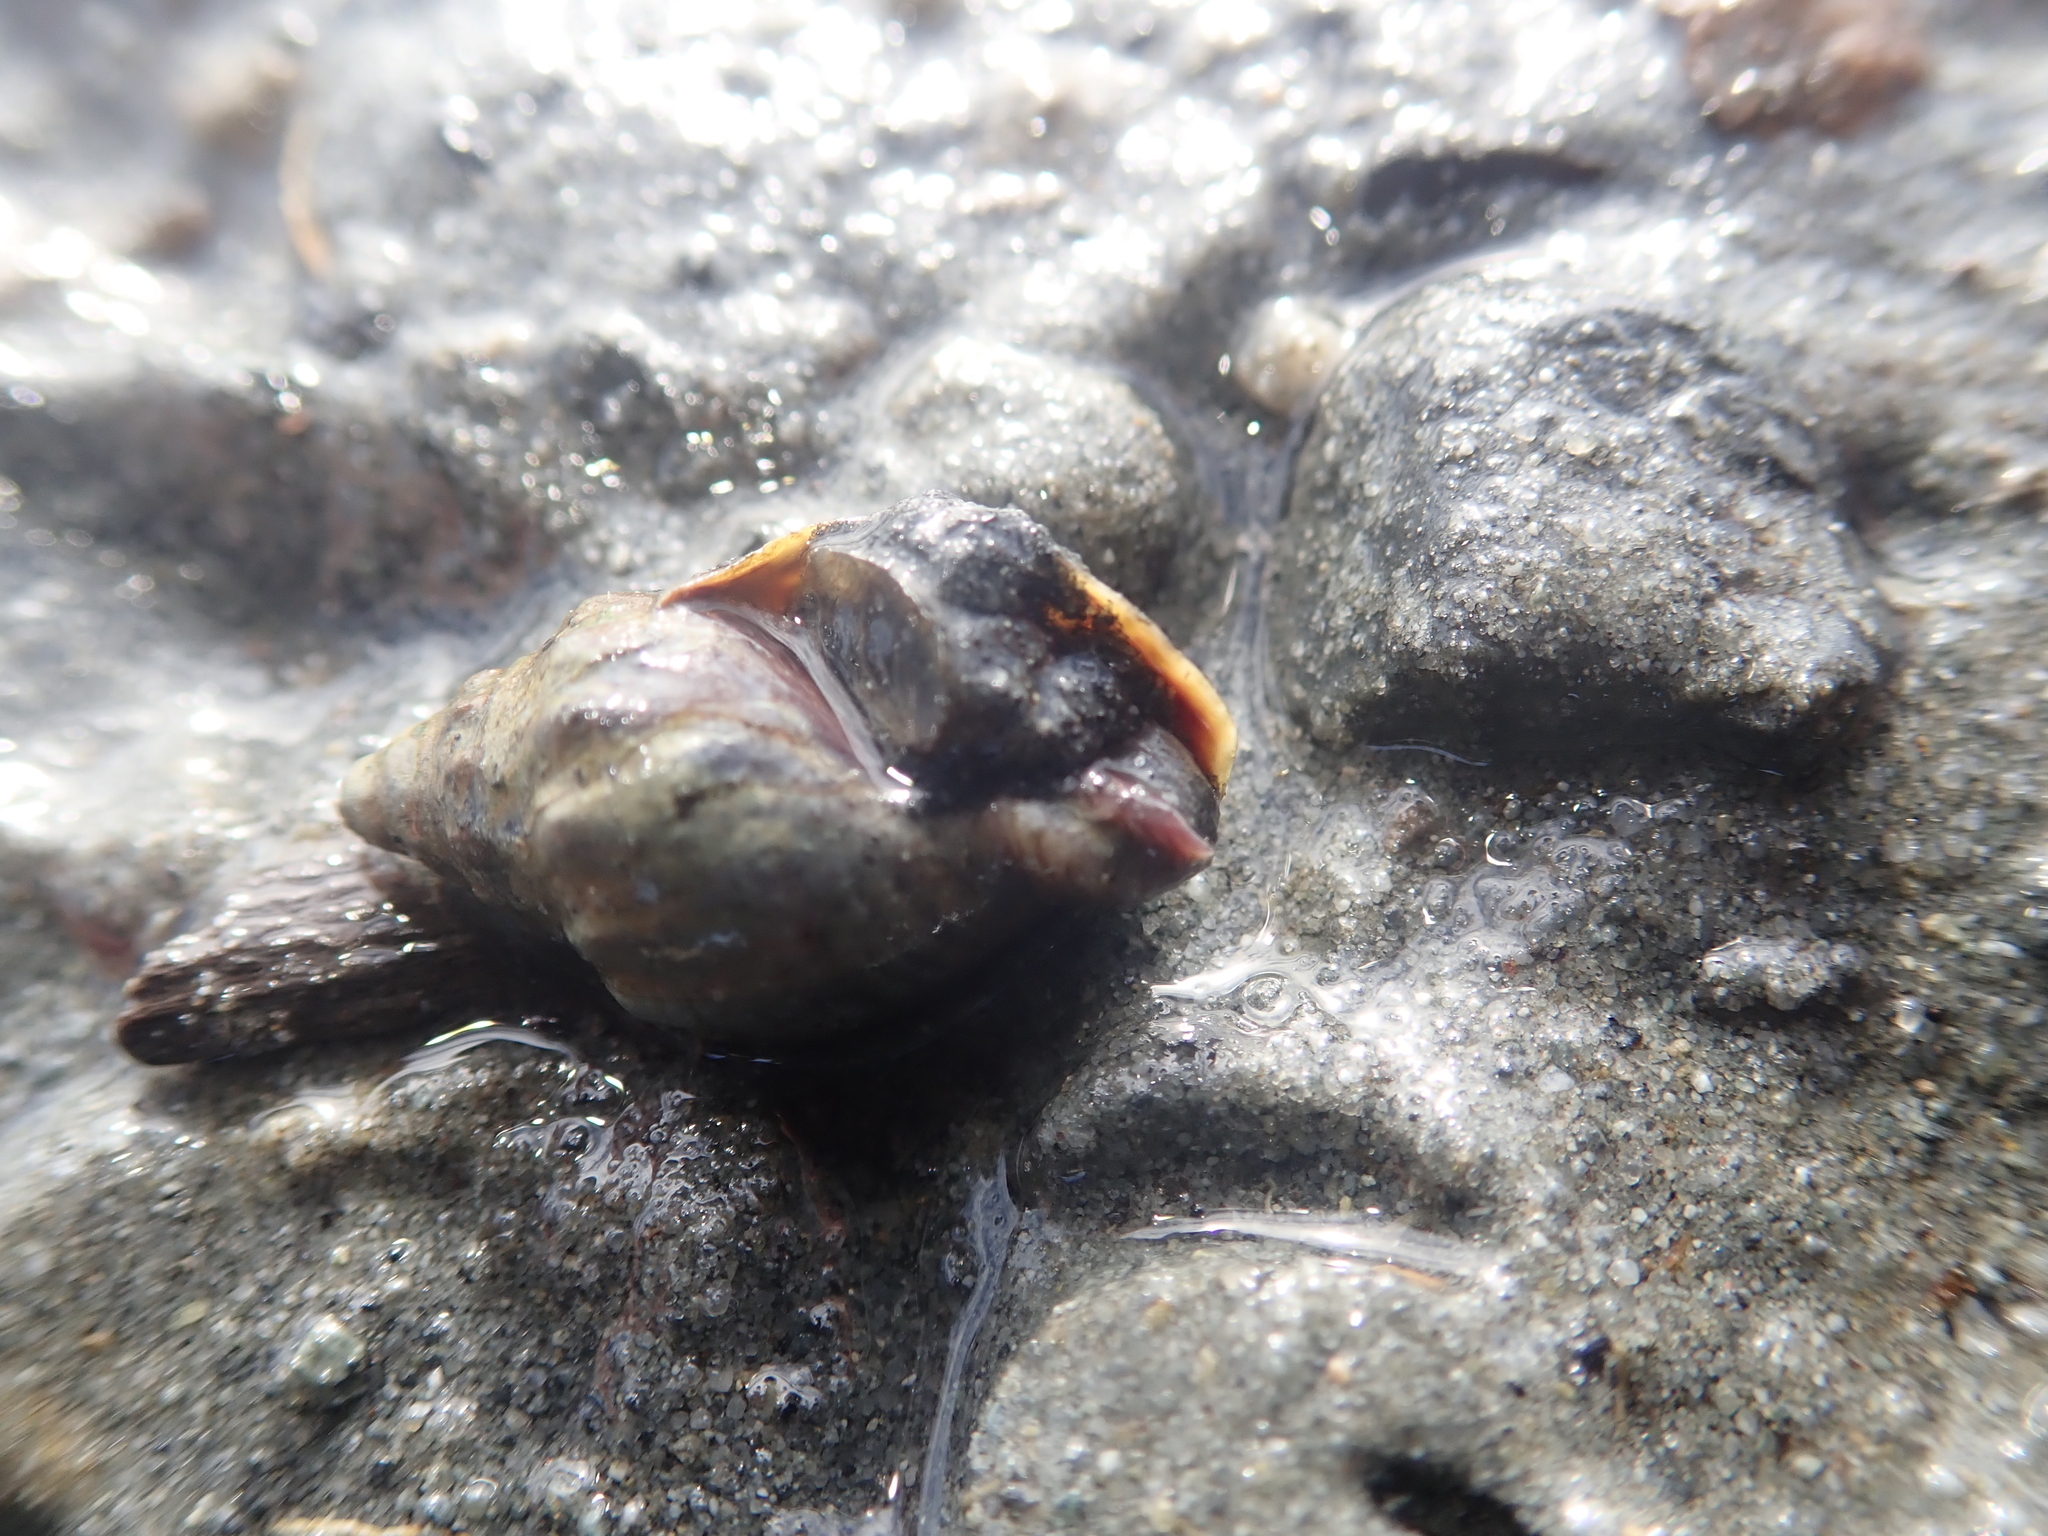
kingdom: Animalia
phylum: Mollusca
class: Gastropoda
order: Neogastropoda
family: Cominellidae
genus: Cominella
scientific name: Cominella glandiformis
